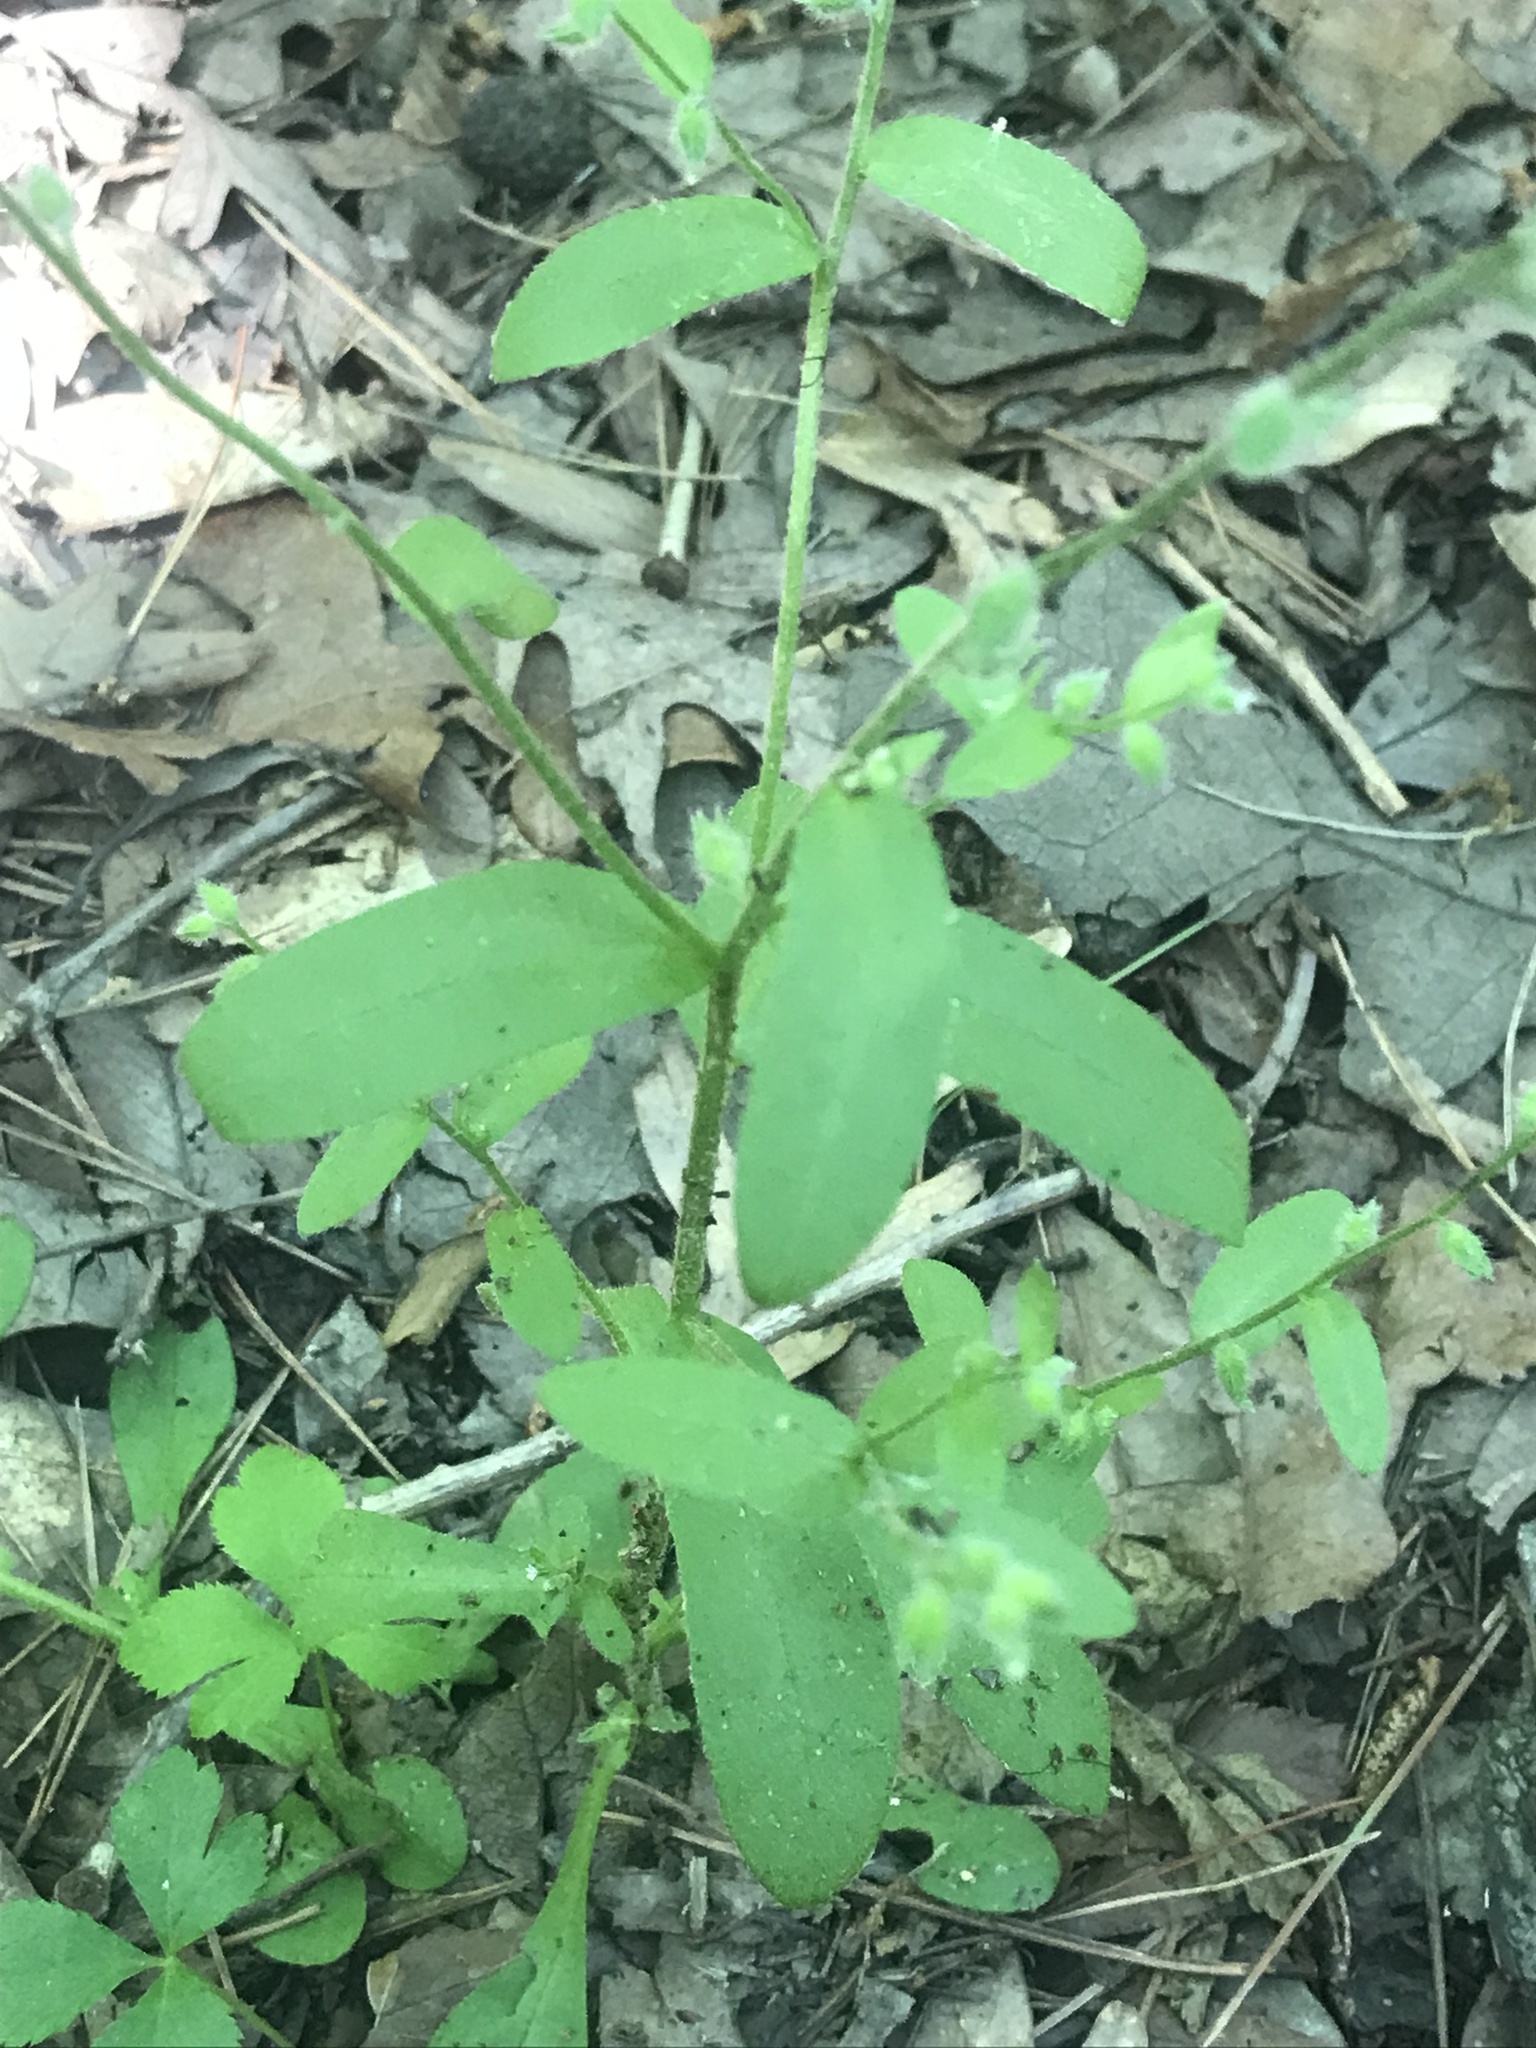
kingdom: Plantae
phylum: Tracheophyta
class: Magnoliopsida
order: Boraginales
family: Boraginaceae
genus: Myosotis
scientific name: Myosotis macrosperma
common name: Large-seed forget-me-not
